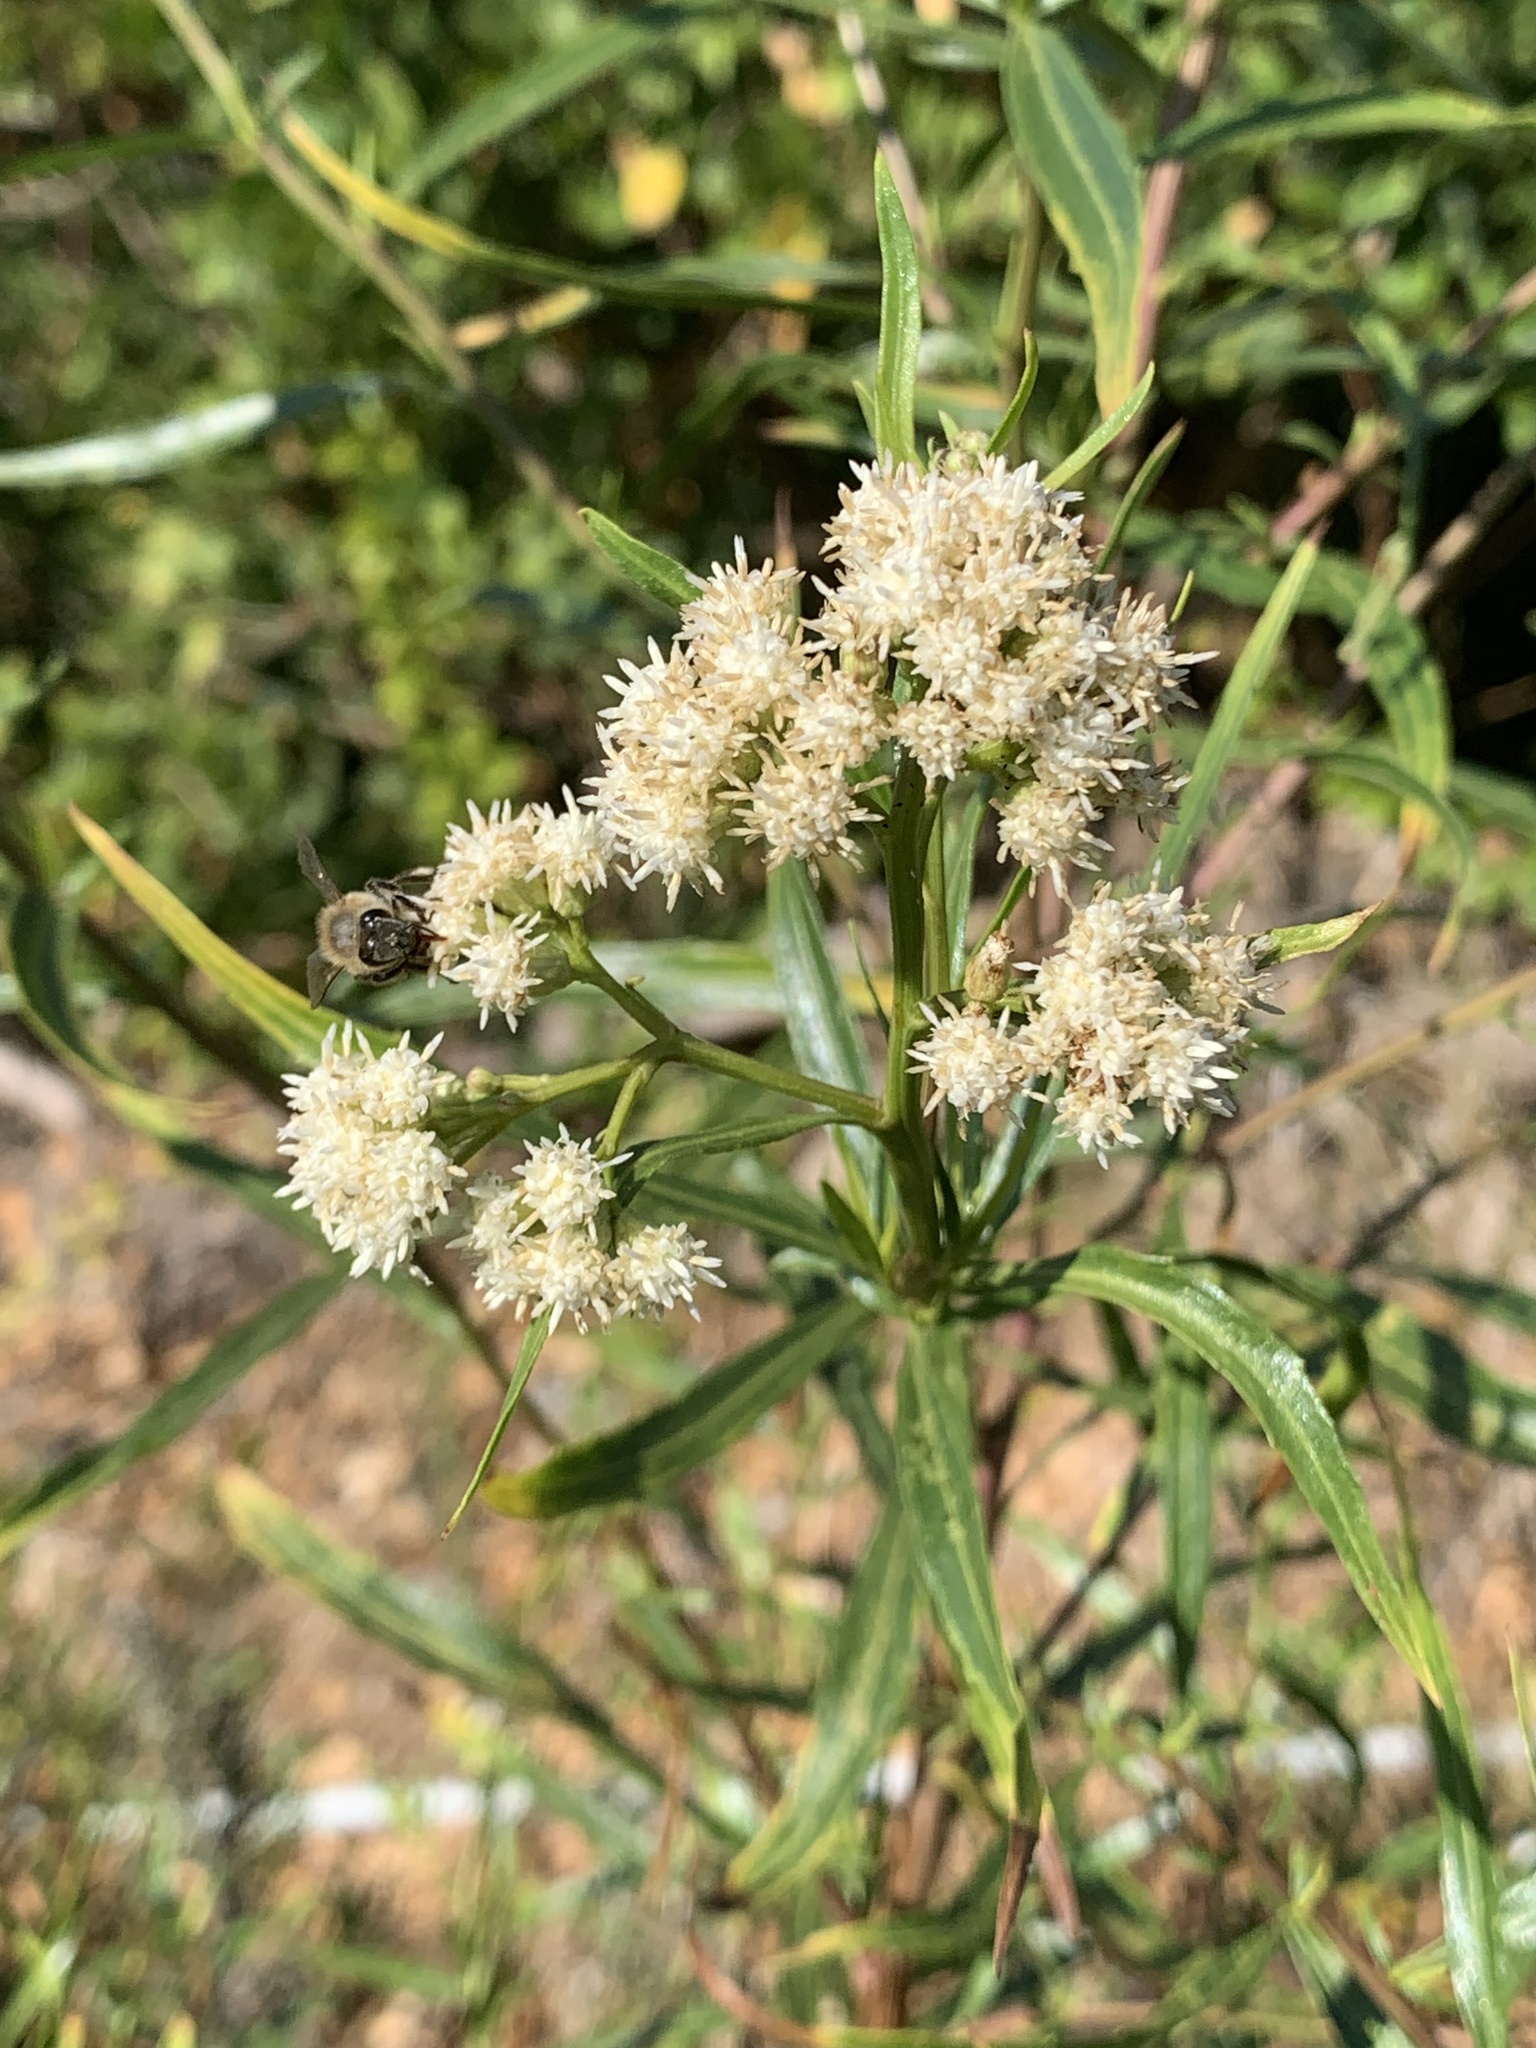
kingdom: Plantae
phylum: Tracheophyta
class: Magnoliopsida
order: Asterales
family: Asteraceae
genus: Baccharis
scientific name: Baccharis salicifolia
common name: Sticky baccharis
